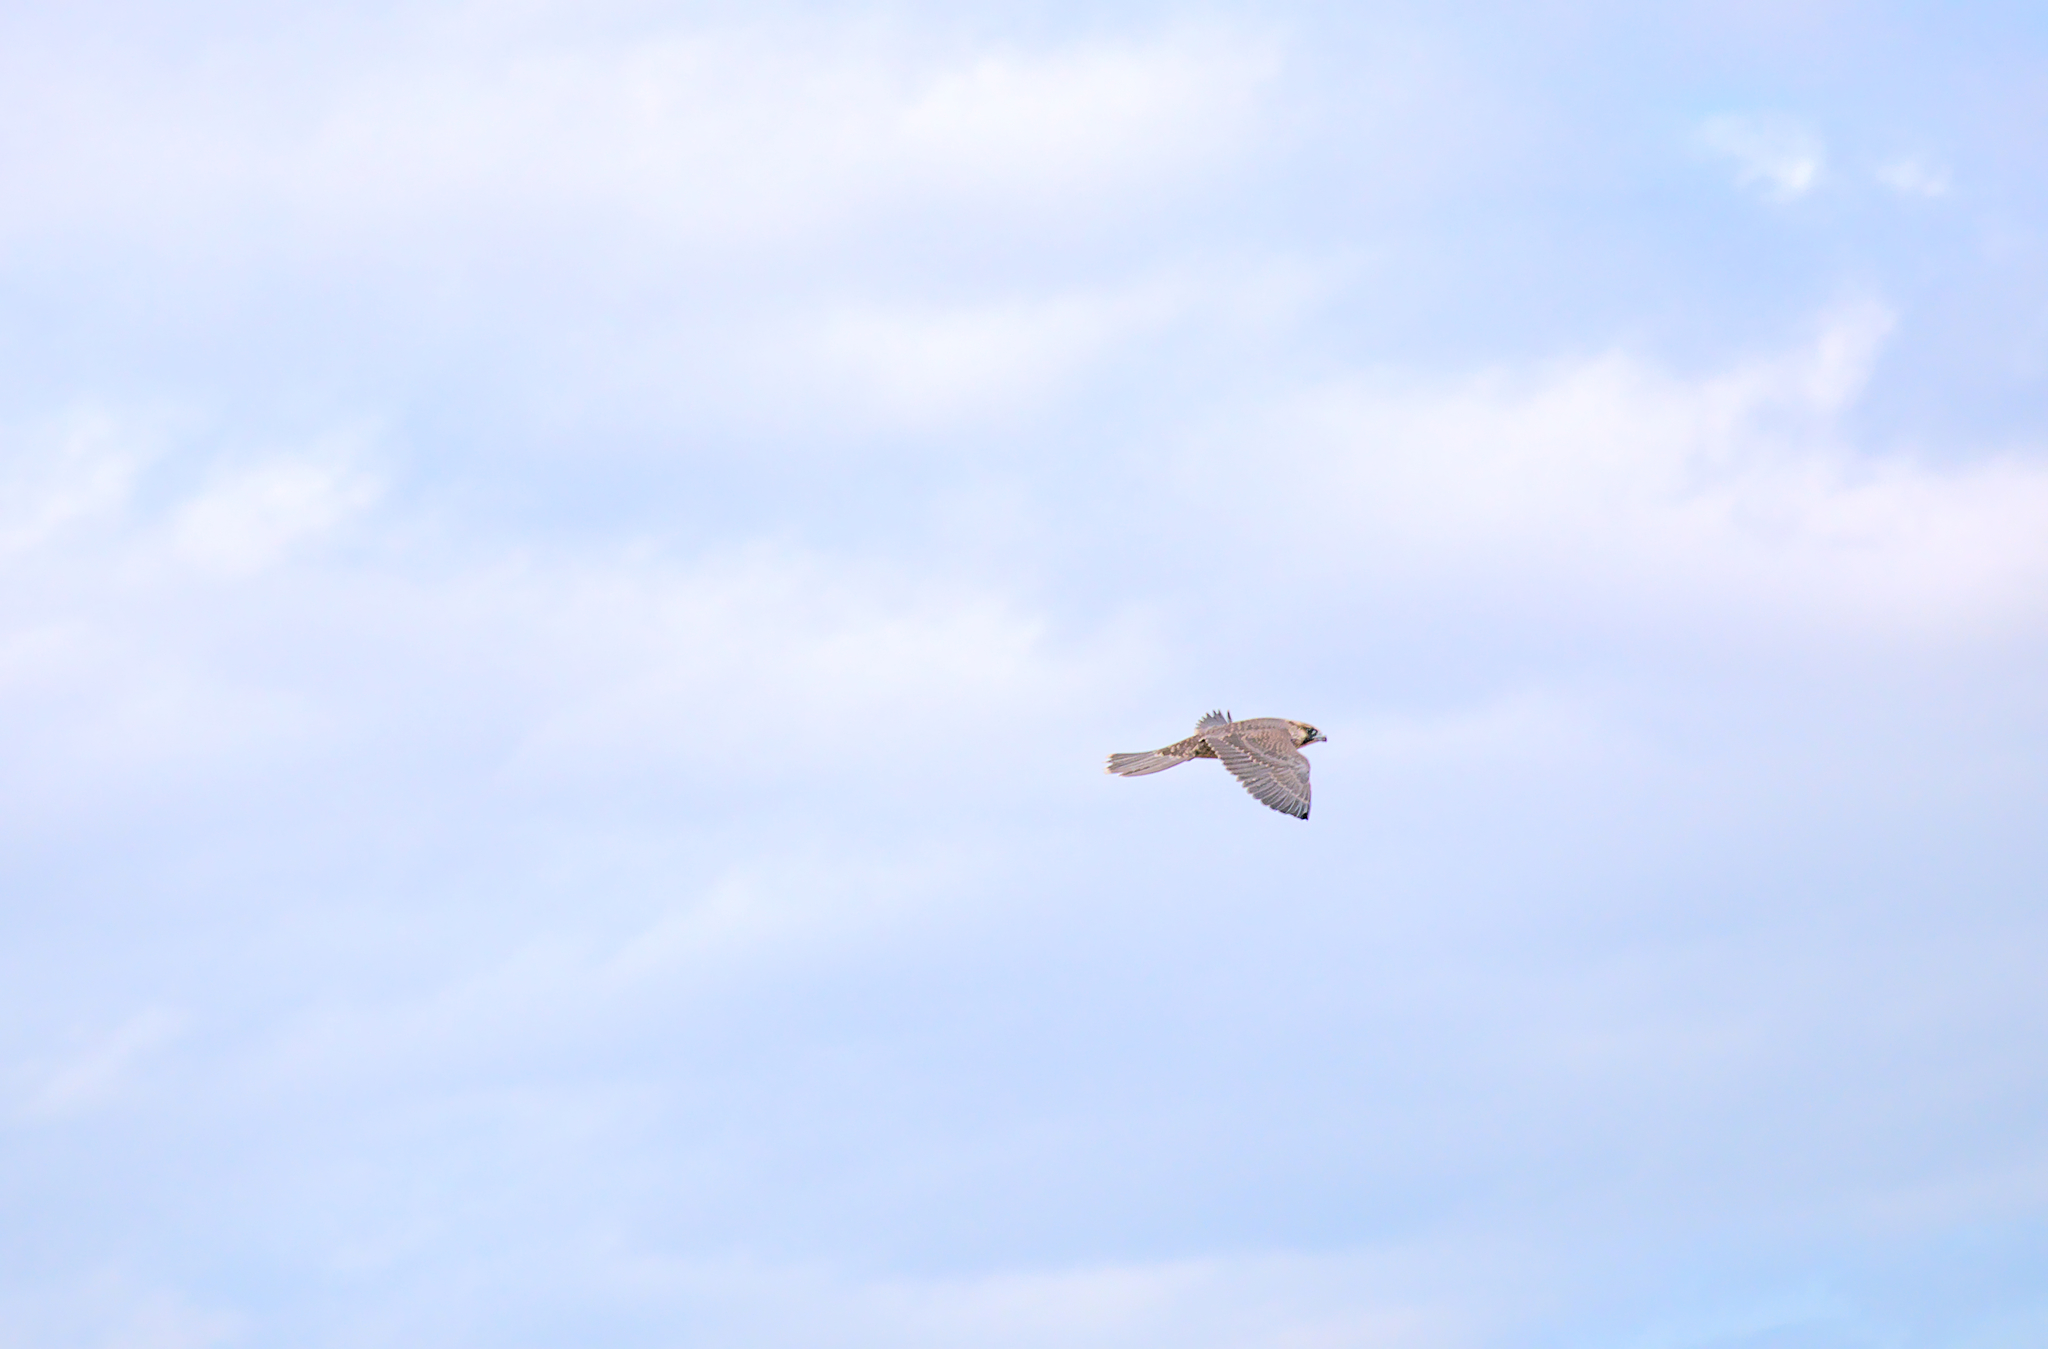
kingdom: Animalia
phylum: Chordata
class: Aves
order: Falconiformes
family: Falconidae
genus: Falco
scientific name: Falco peregrinus
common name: Peregrine falcon
